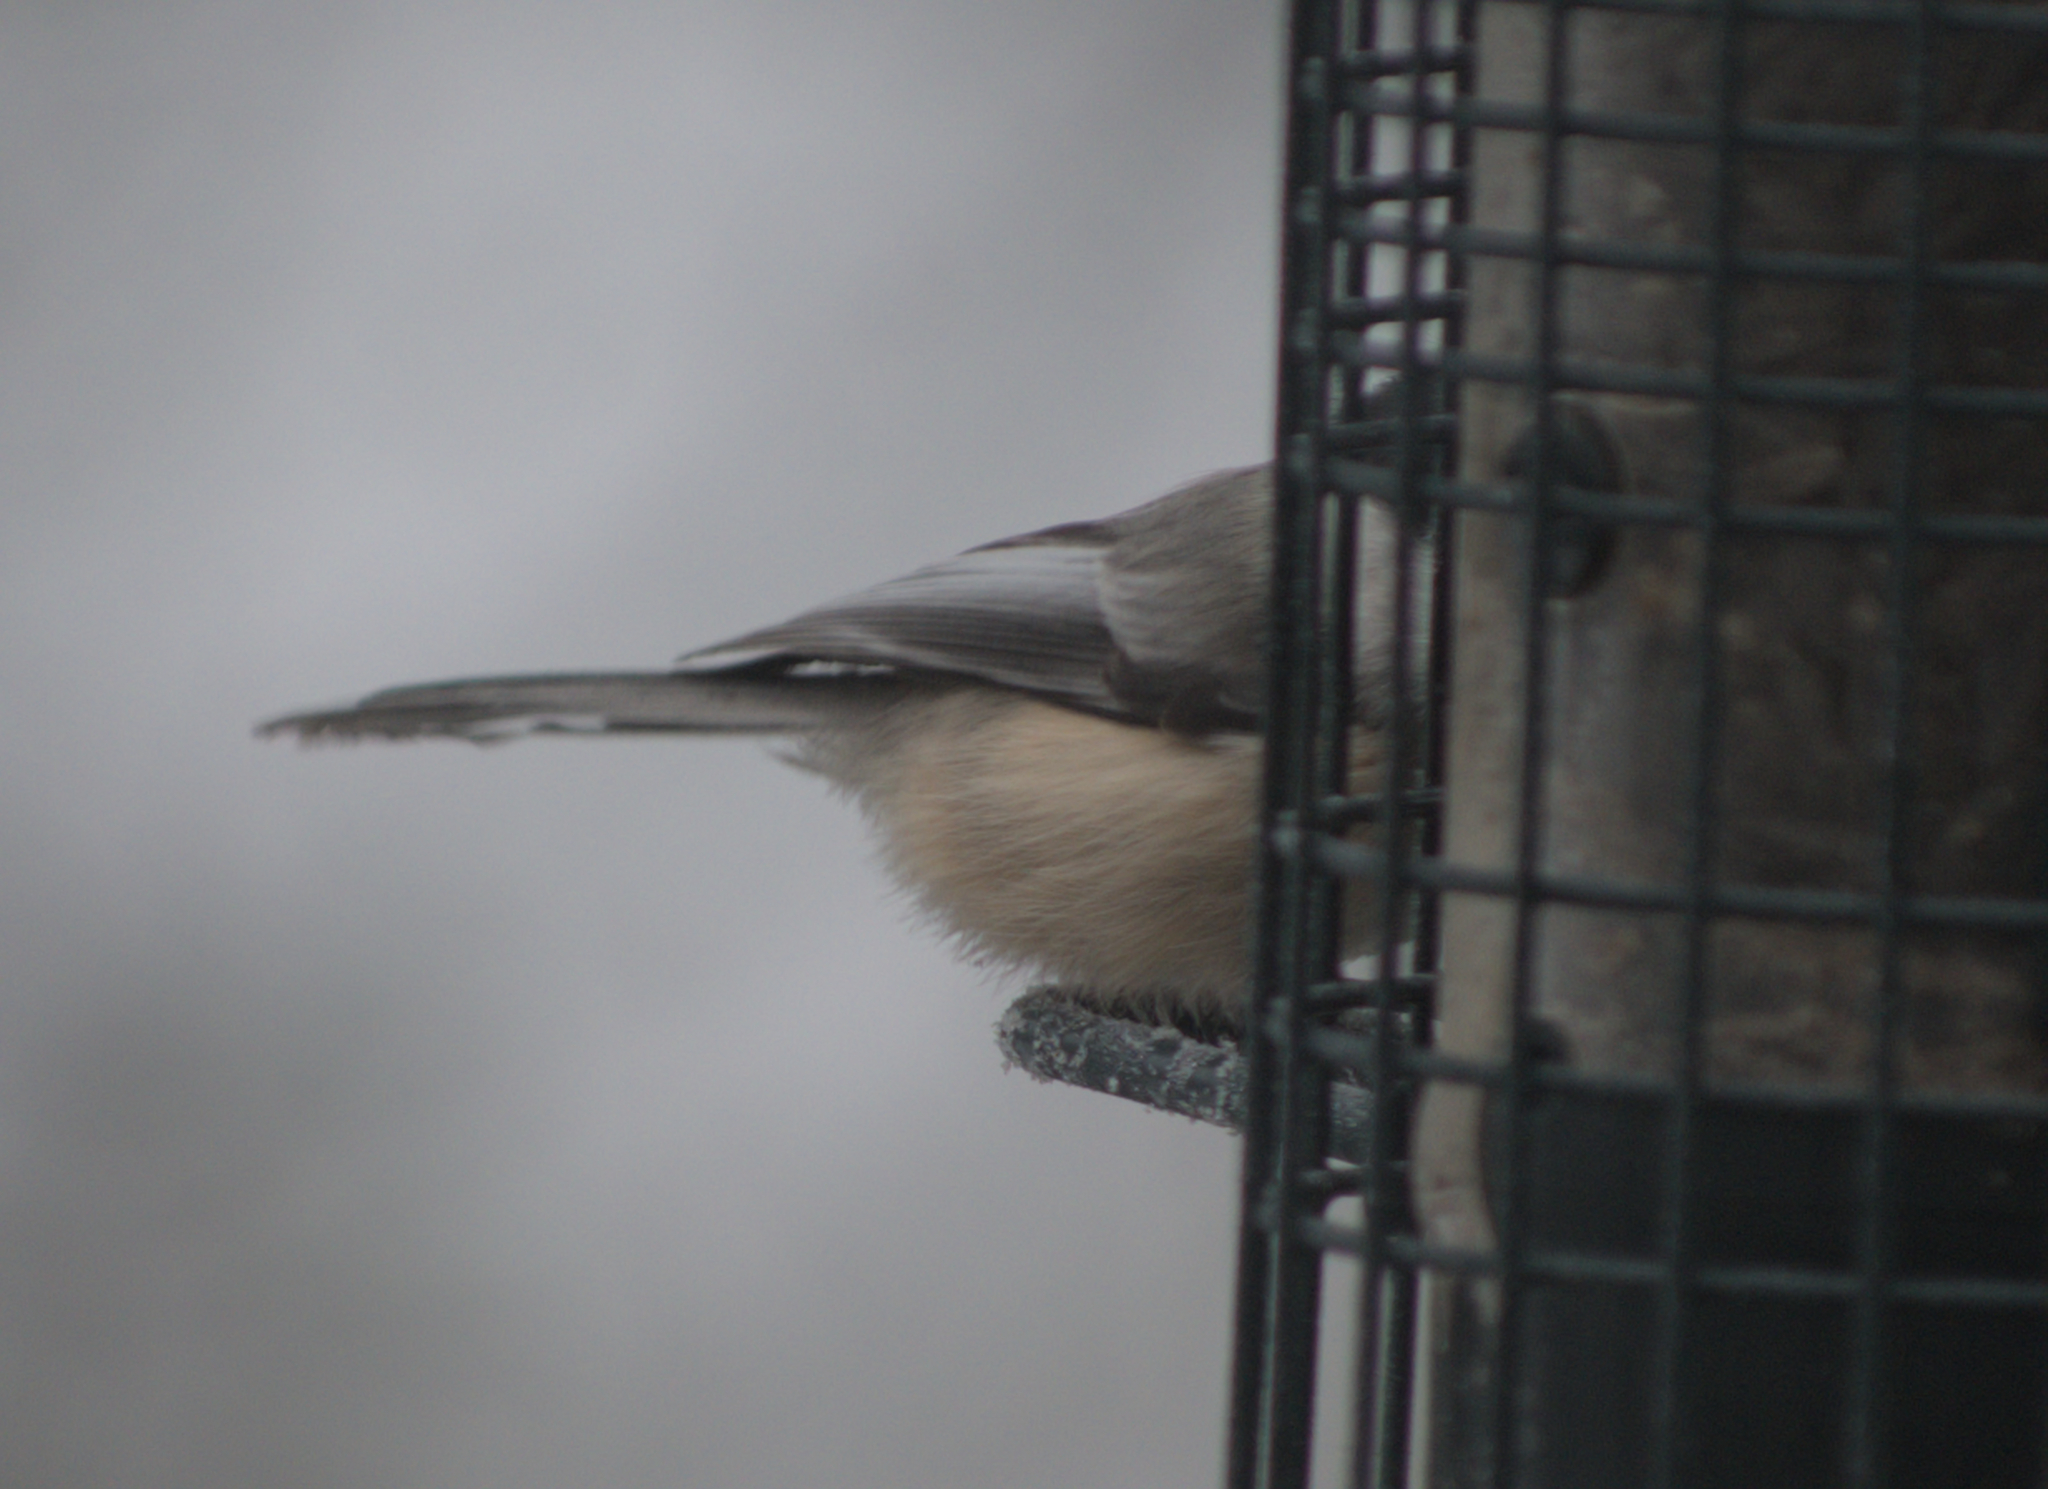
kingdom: Animalia
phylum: Chordata
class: Aves
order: Passeriformes
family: Paridae
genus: Poecile
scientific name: Poecile atricapillus
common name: Black-capped chickadee
